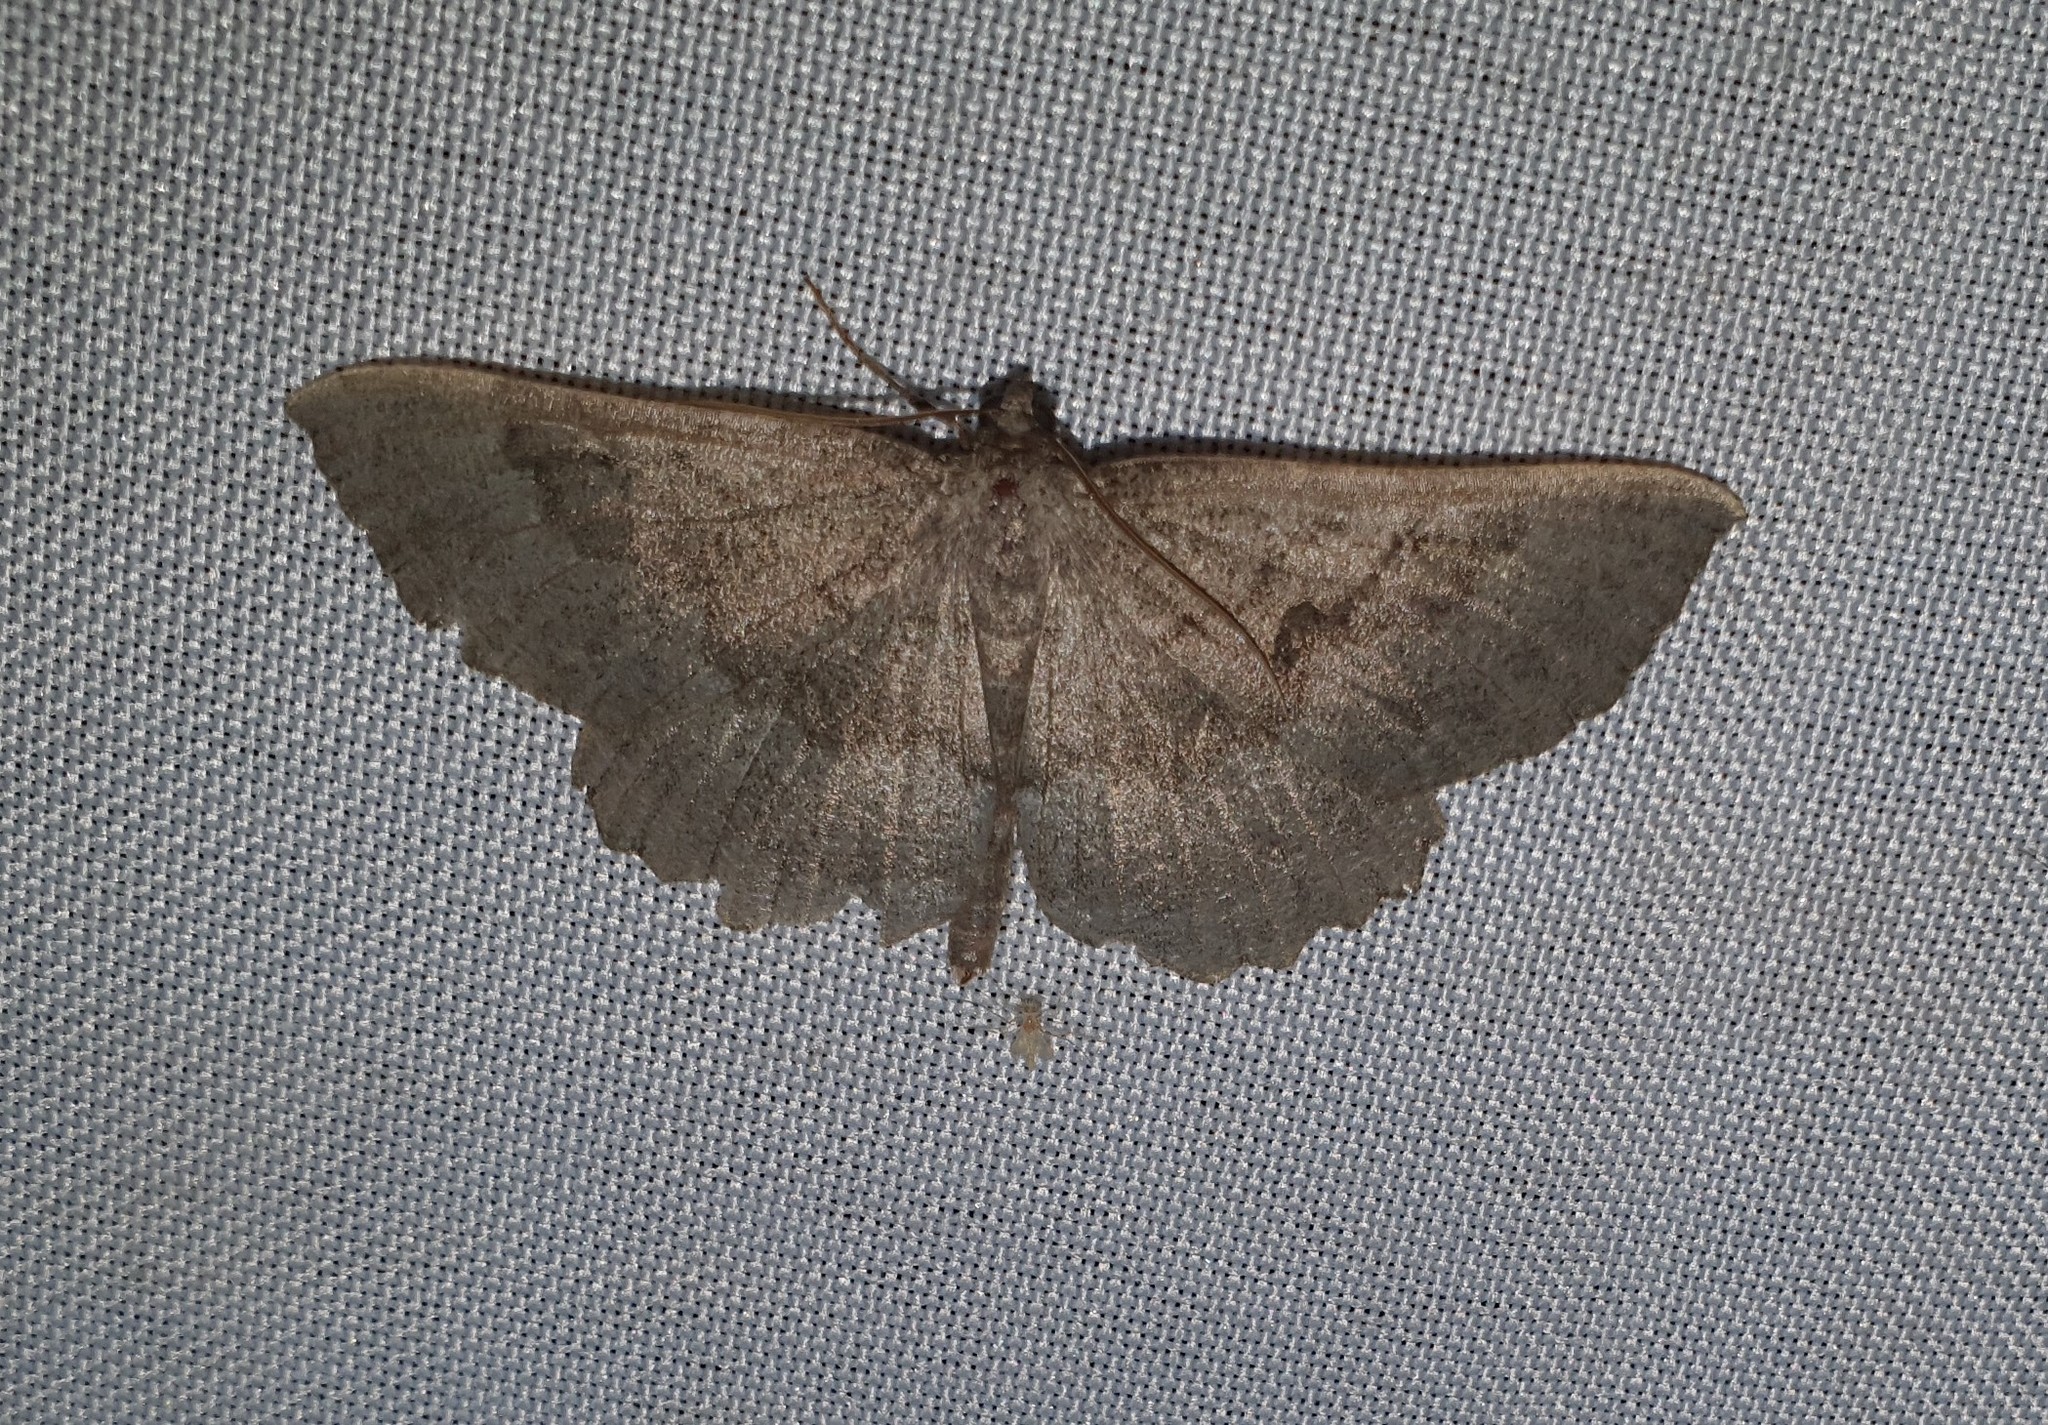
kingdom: Animalia
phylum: Arthropoda
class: Insecta
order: Lepidoptera
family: Geometridae
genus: Gnophos
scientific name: Gnophos furvata
